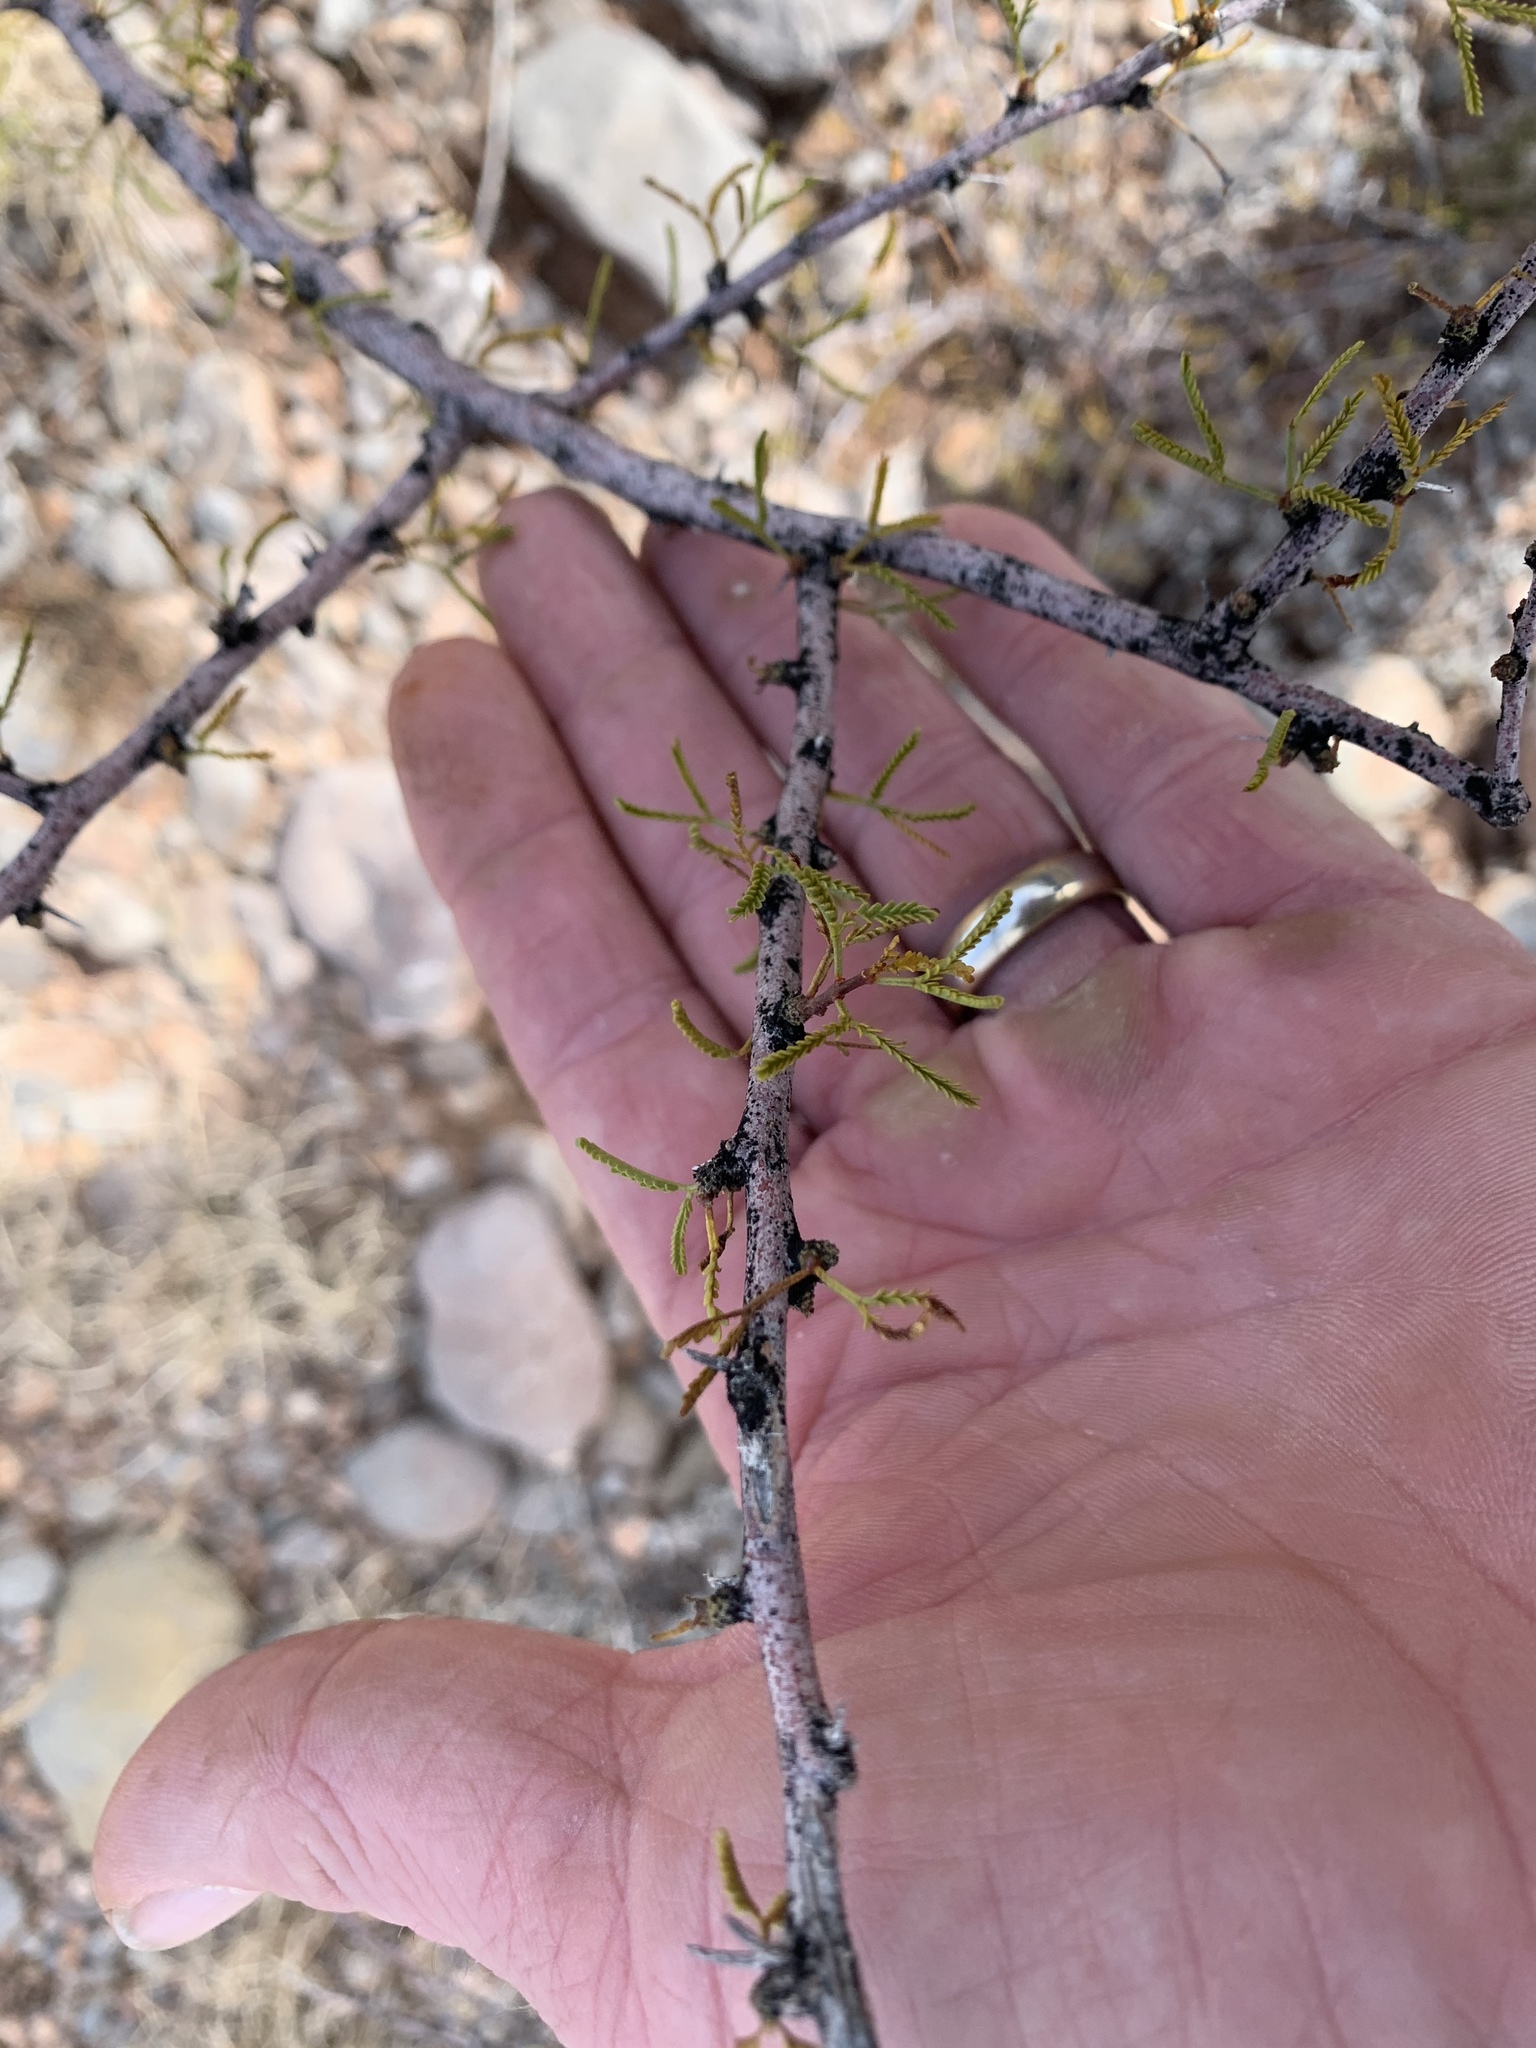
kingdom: Plantae
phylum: Tracheophyta
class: Magnoliopsida
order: Fabales
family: Fabaceae
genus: Vachellia
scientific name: Vachellia constricta
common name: Mescat acacia
